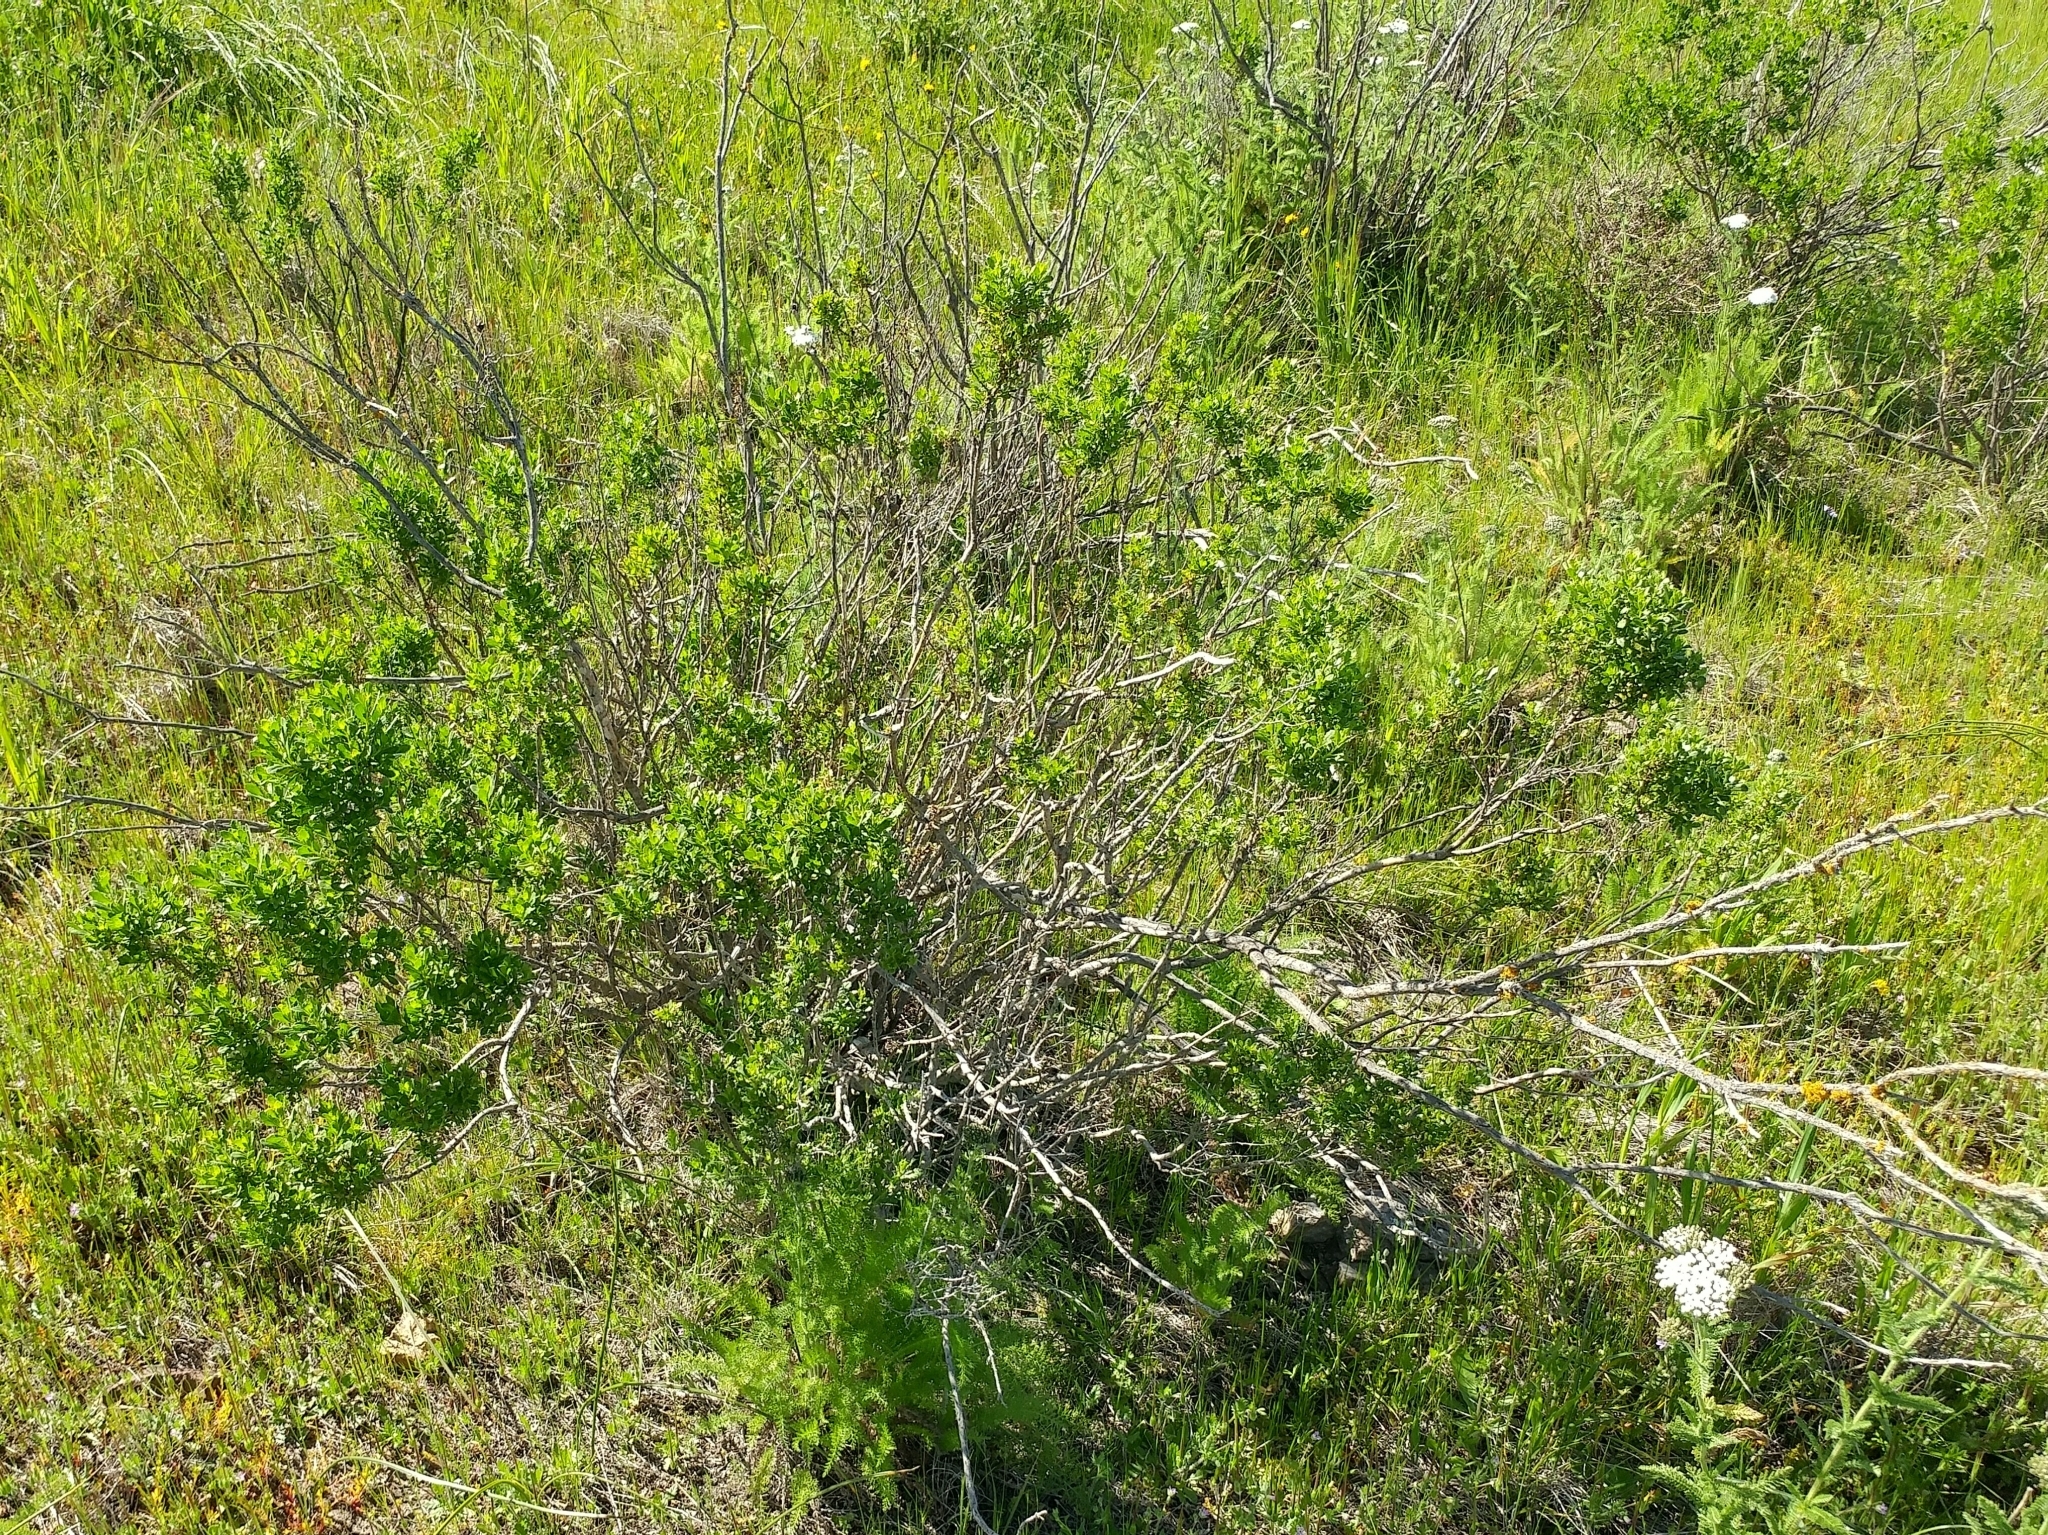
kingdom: Plantae
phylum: Tracheophyta
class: Magnoliopsida
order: Asterales
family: Asteraceae
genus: Baccharis
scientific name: Baccharis pilularis
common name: Coyotebrush
